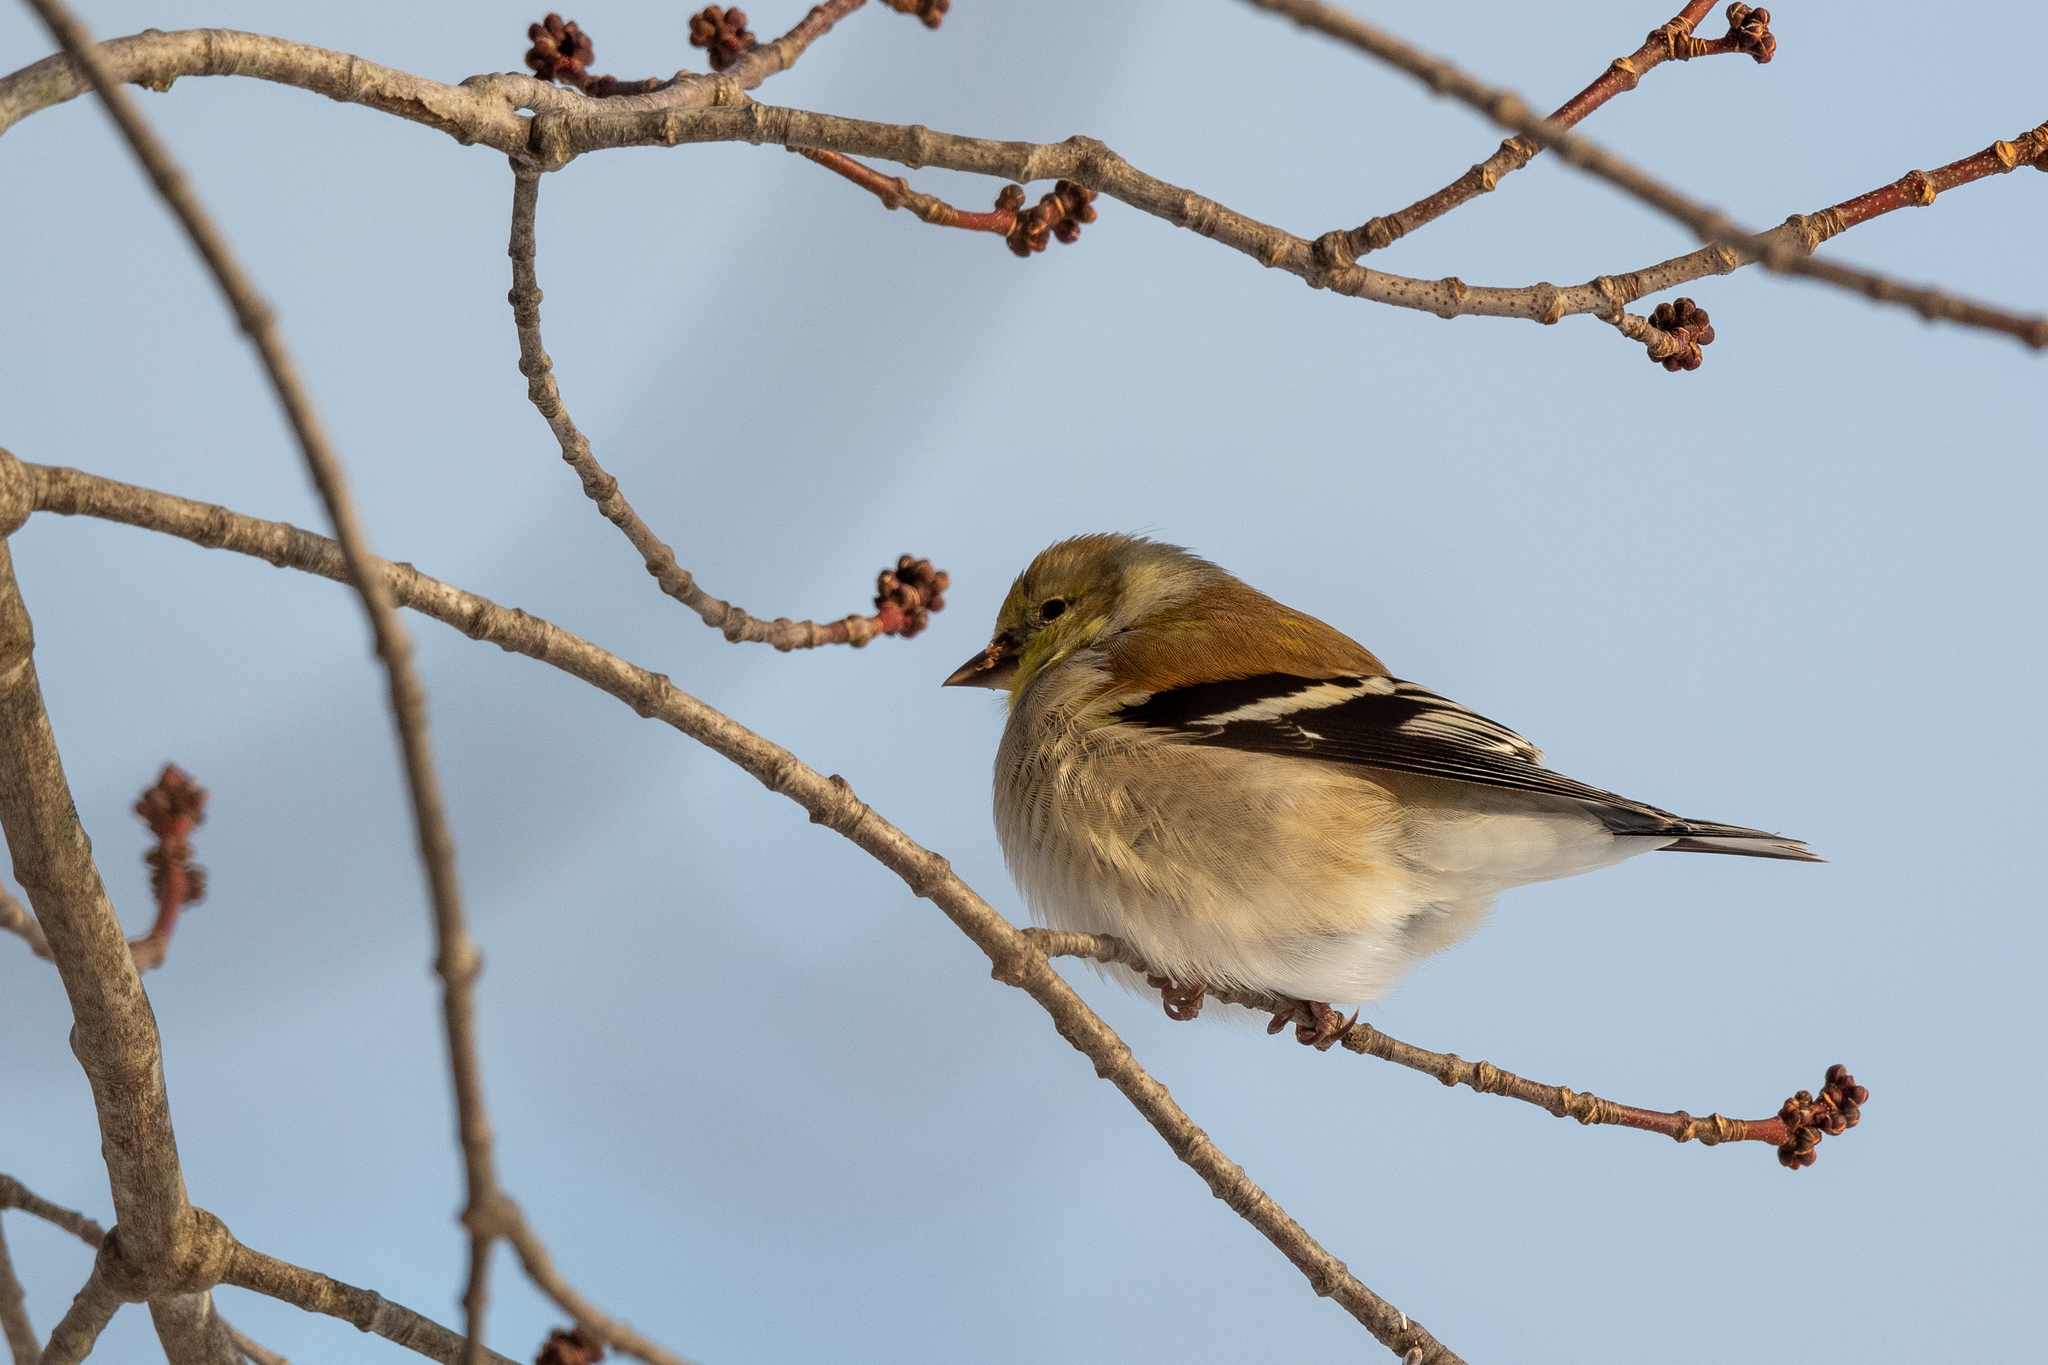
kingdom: Animalia
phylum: Chordata
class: Aves
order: Passeriformes
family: Fringillidae
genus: Spinus
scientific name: Spinus tristis
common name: American goldfinch
